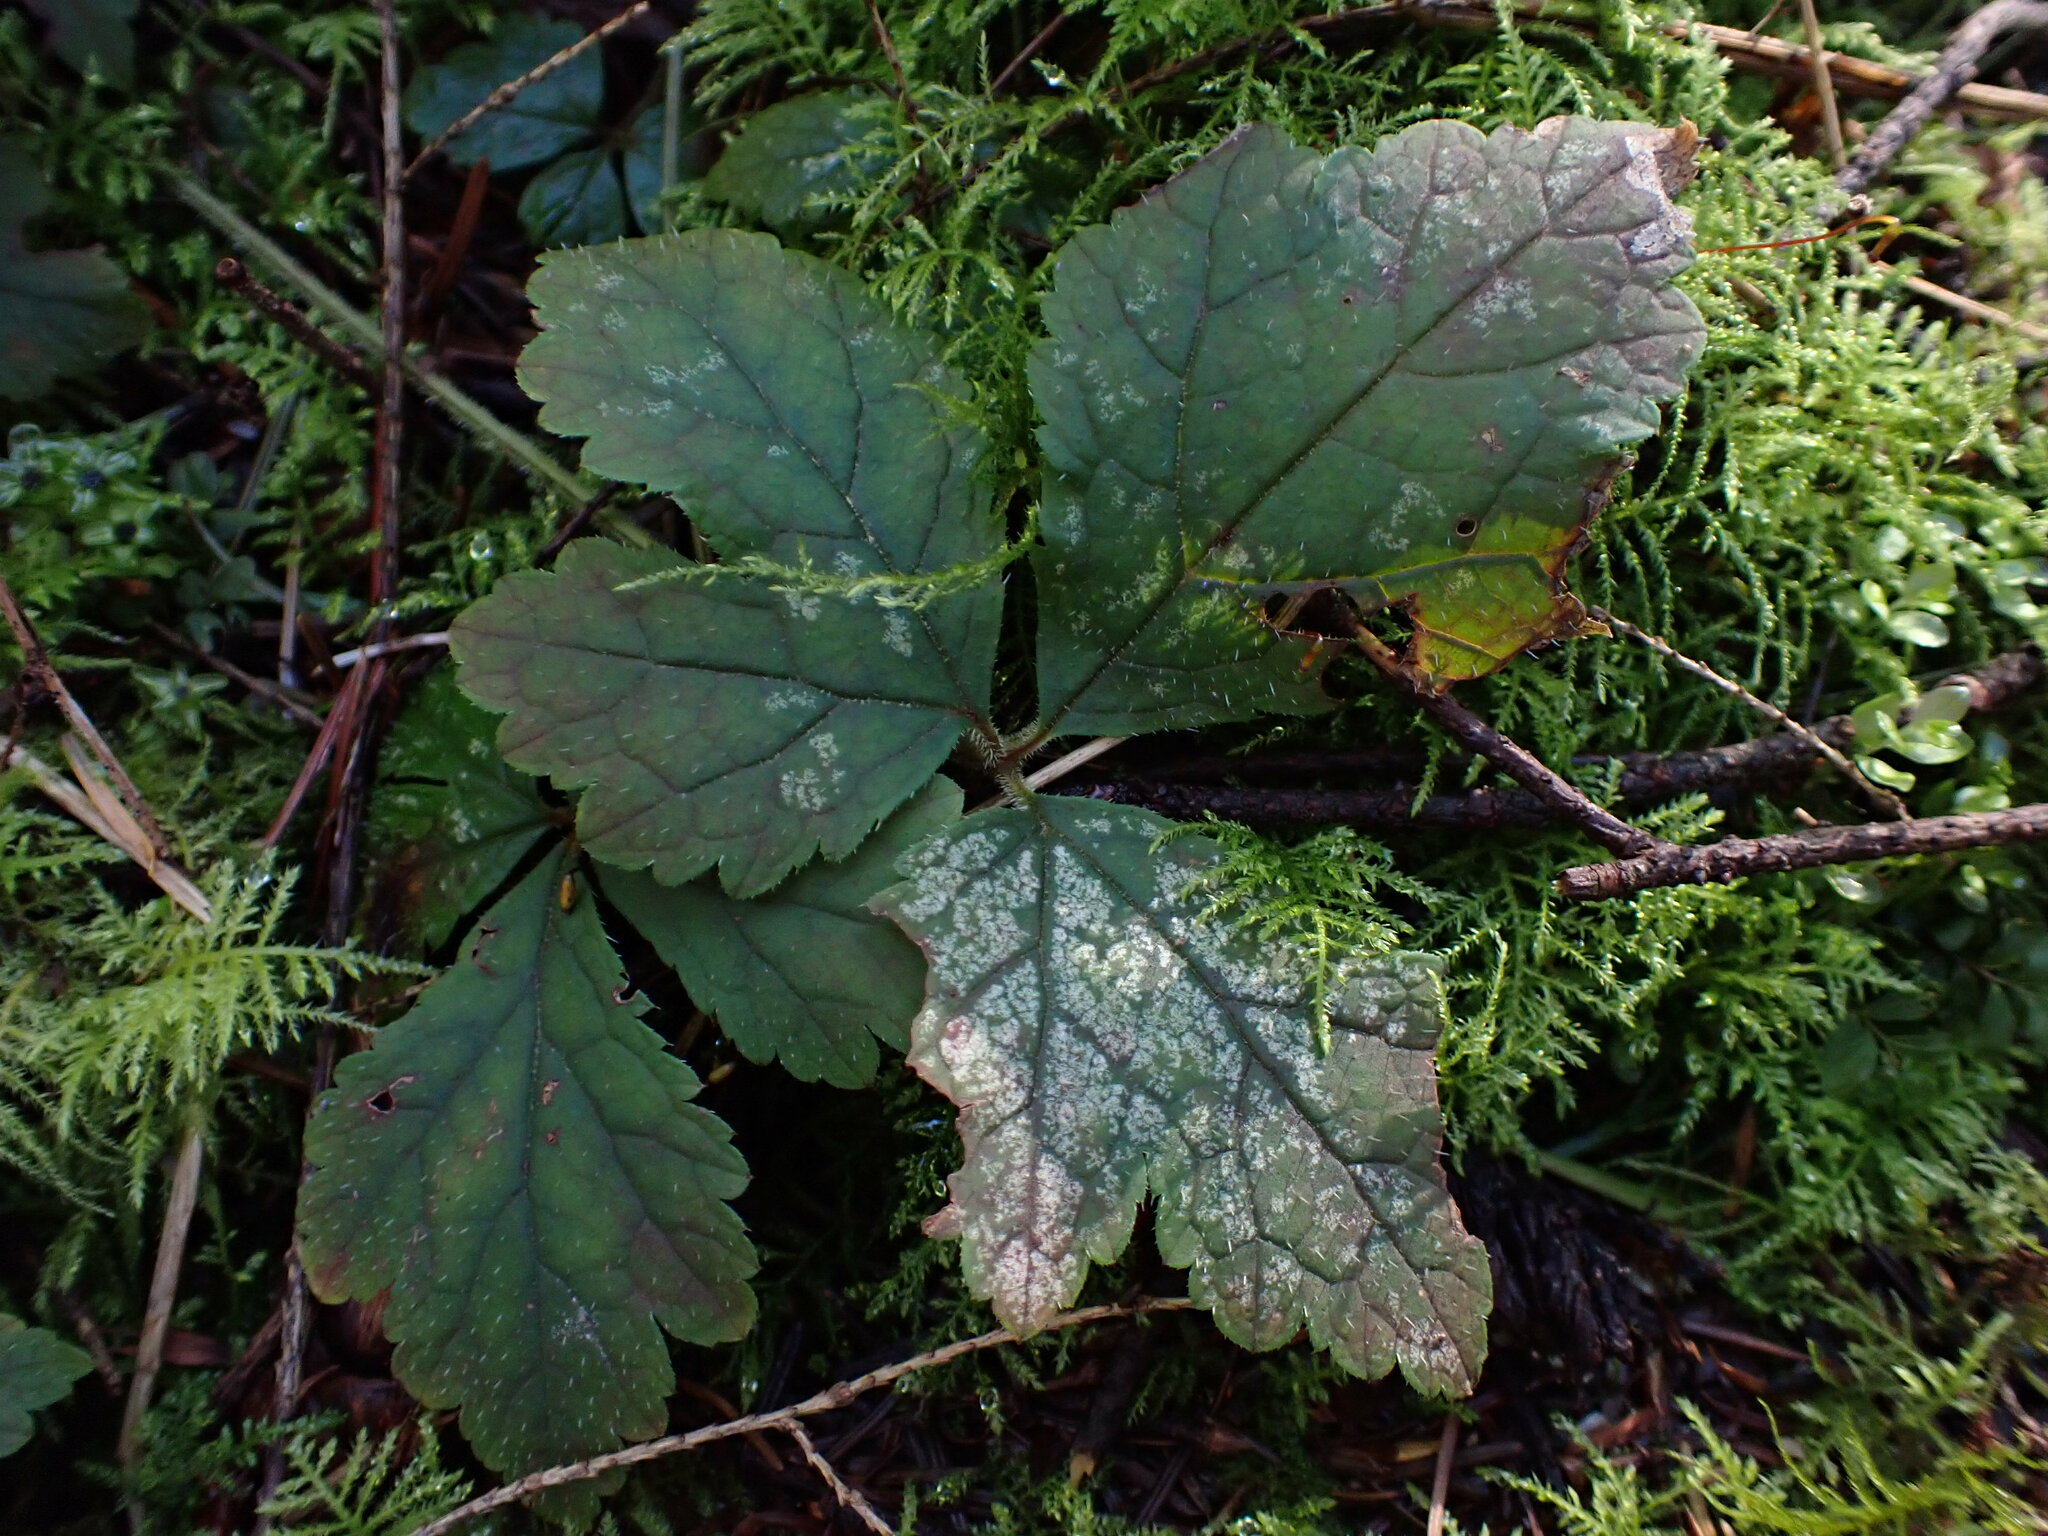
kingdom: Plantae
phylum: Tracheophyta
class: Magnoliopsida
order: Saxifragales
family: Saxifragaceae
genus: Tiarella
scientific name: Tiarella trifoliata
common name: Sugar-scoop
